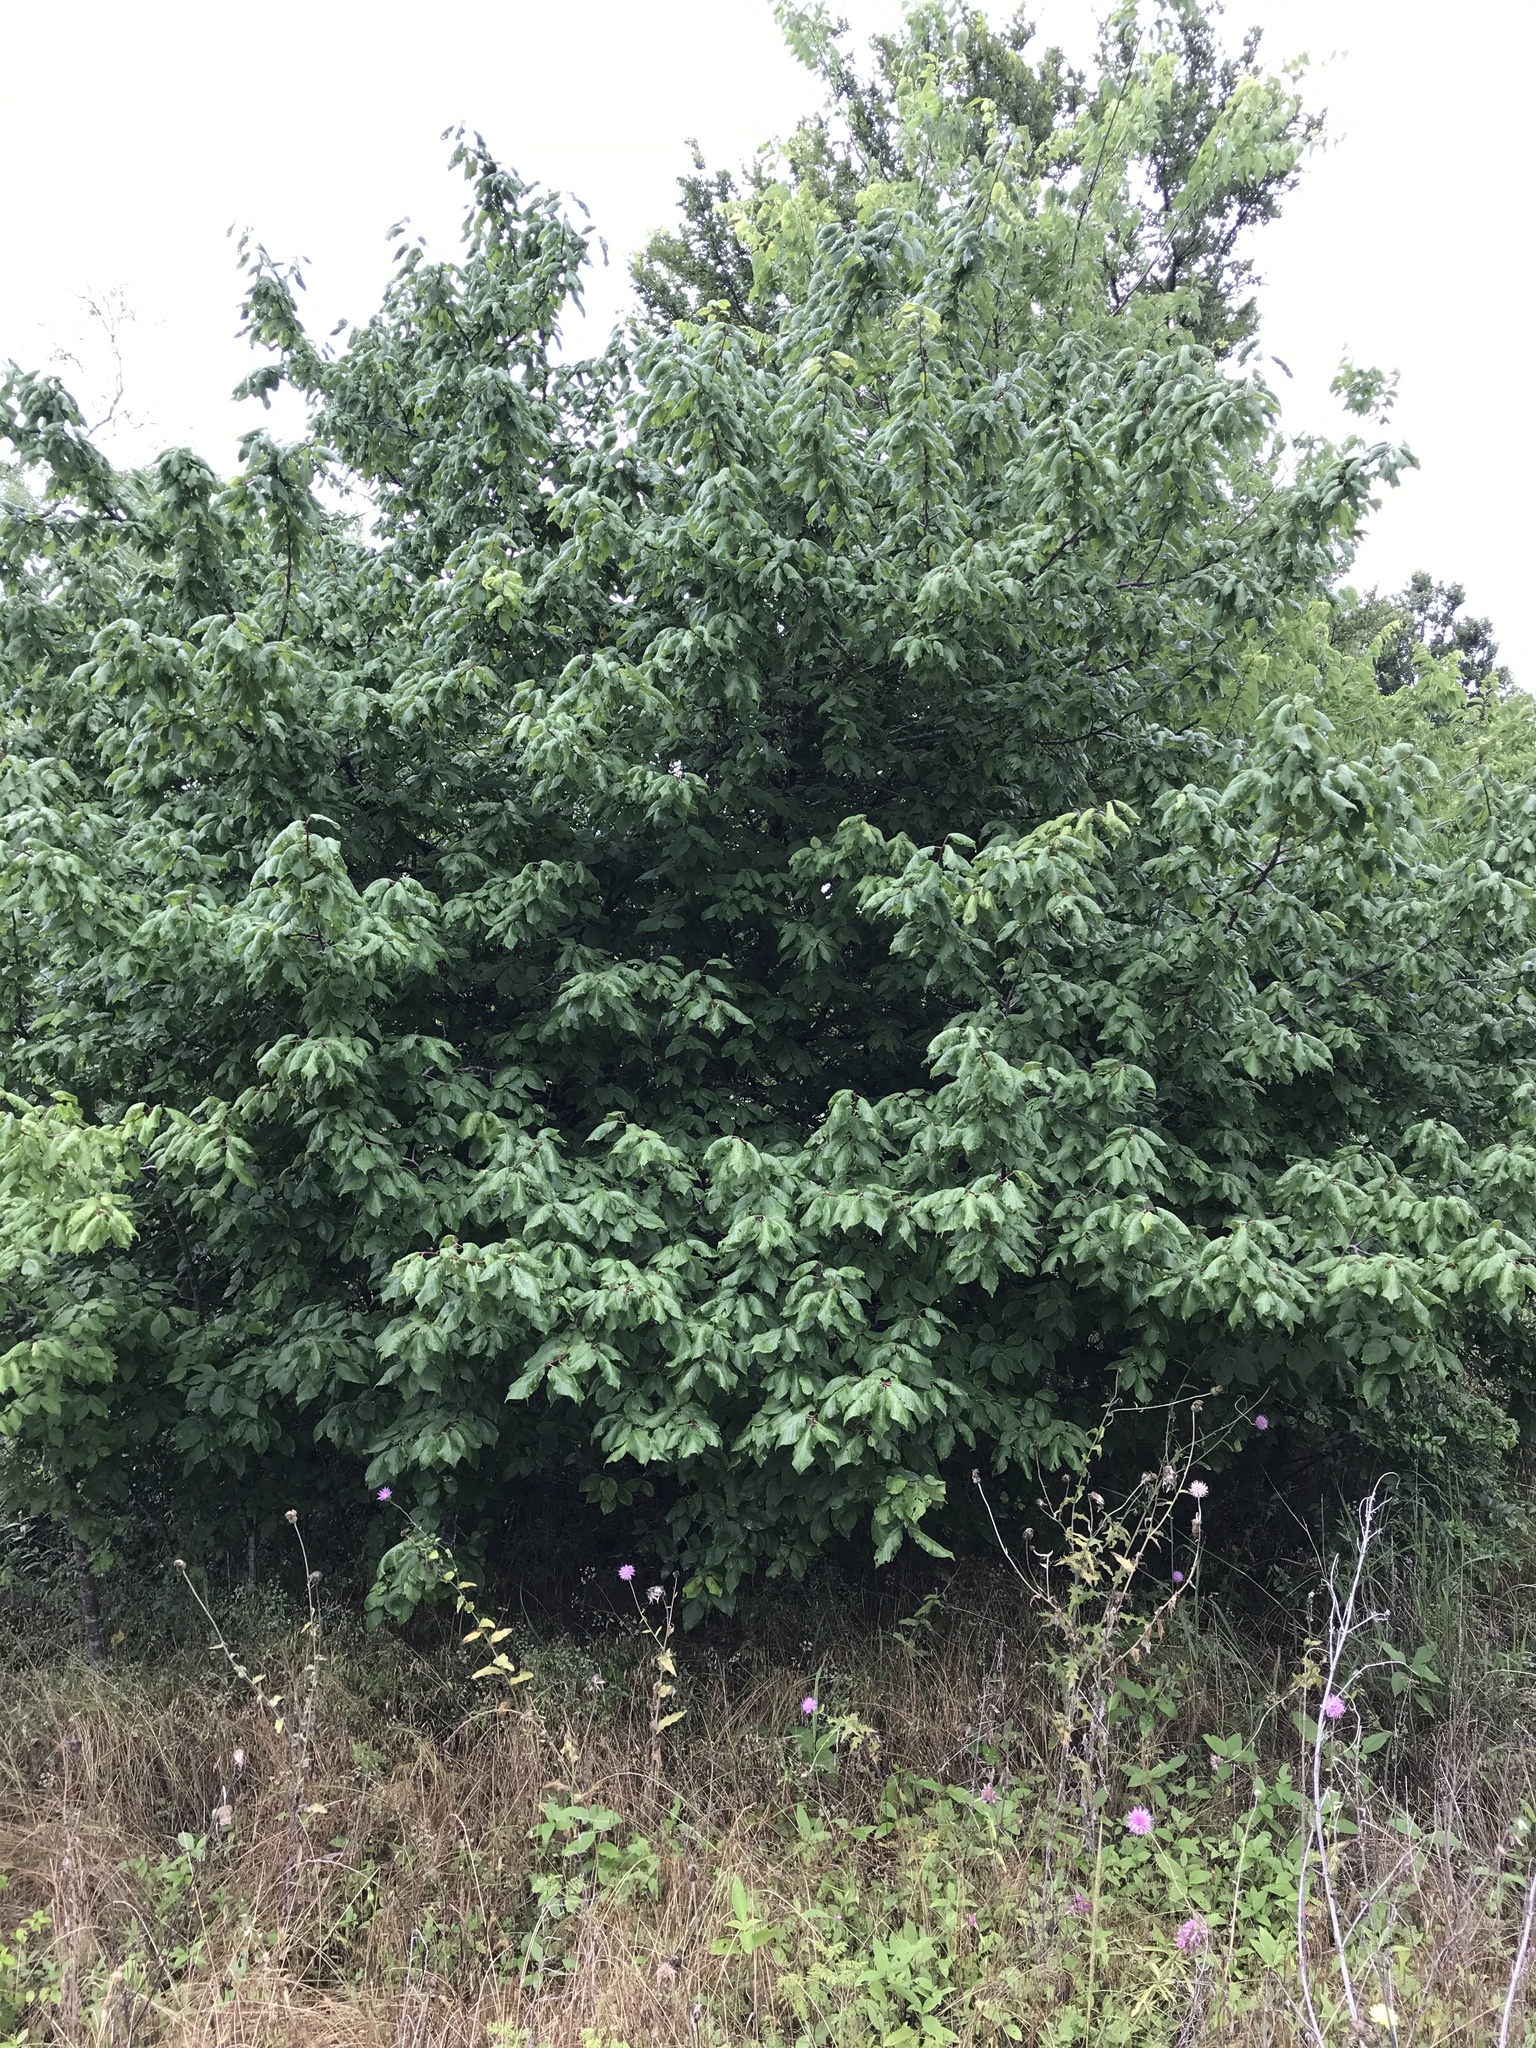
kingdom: Plantae
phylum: Tracheophyta
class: Magnoliopsida
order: Rosales
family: Rosaceae
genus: Prunus
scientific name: Prunus mexicana
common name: Mexican plum
